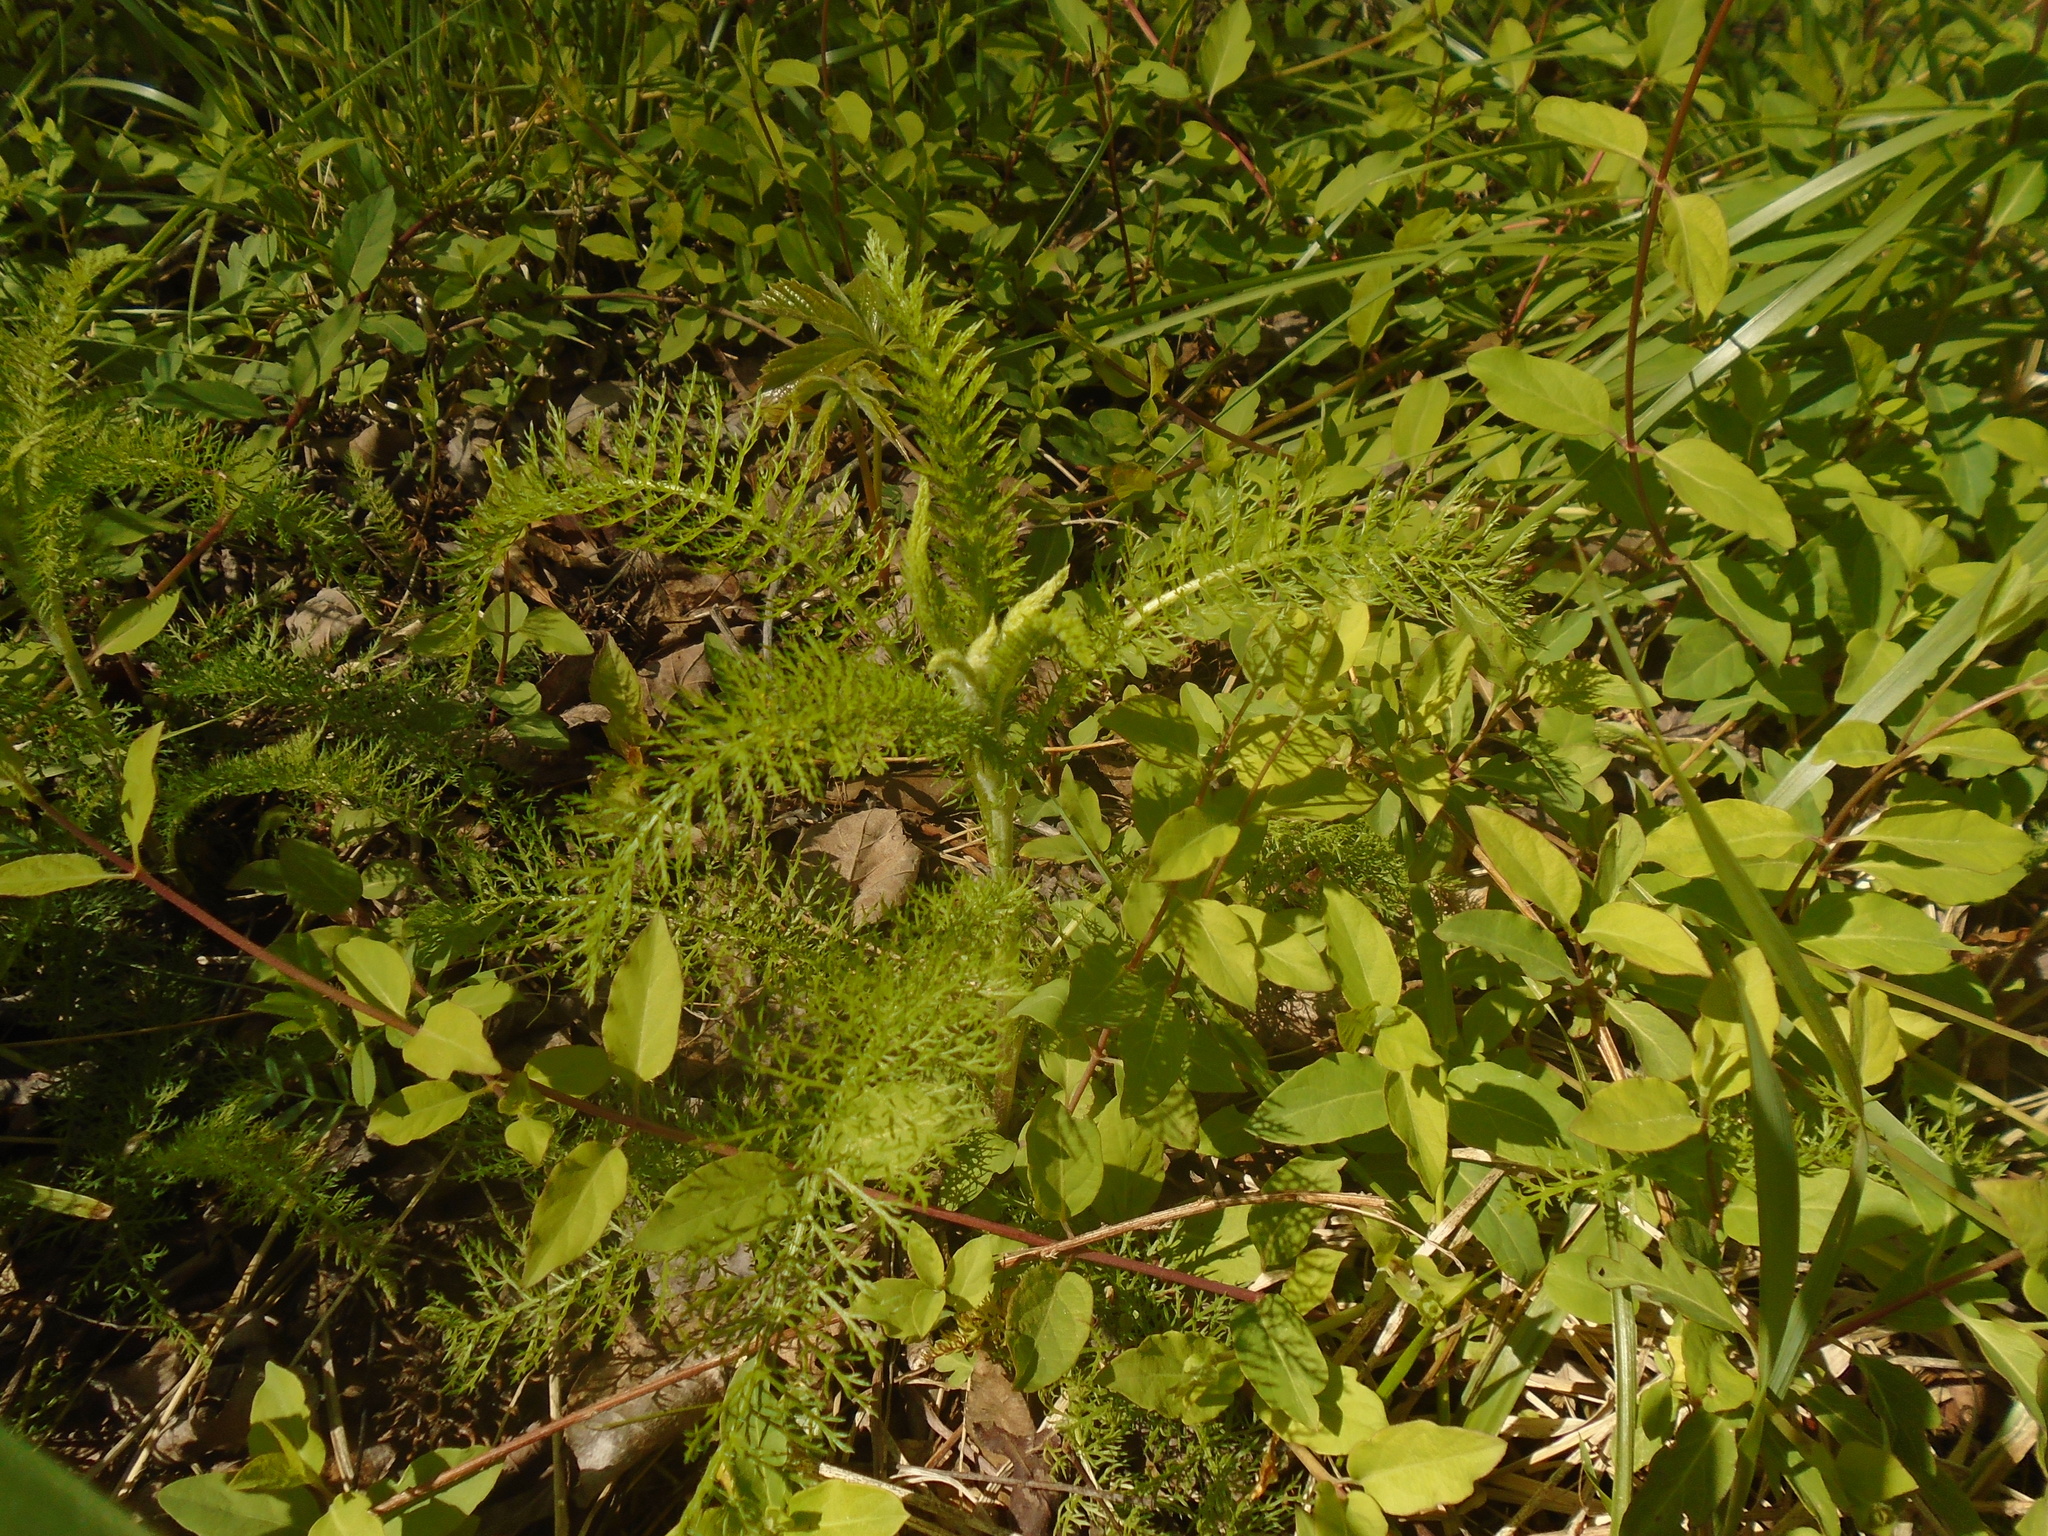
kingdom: Plantae
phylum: Tracheophyta
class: Magnoliopsida
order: Asterales
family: Asteraceae
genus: Achillea
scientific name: Achillea millefolium
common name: Yarrow
